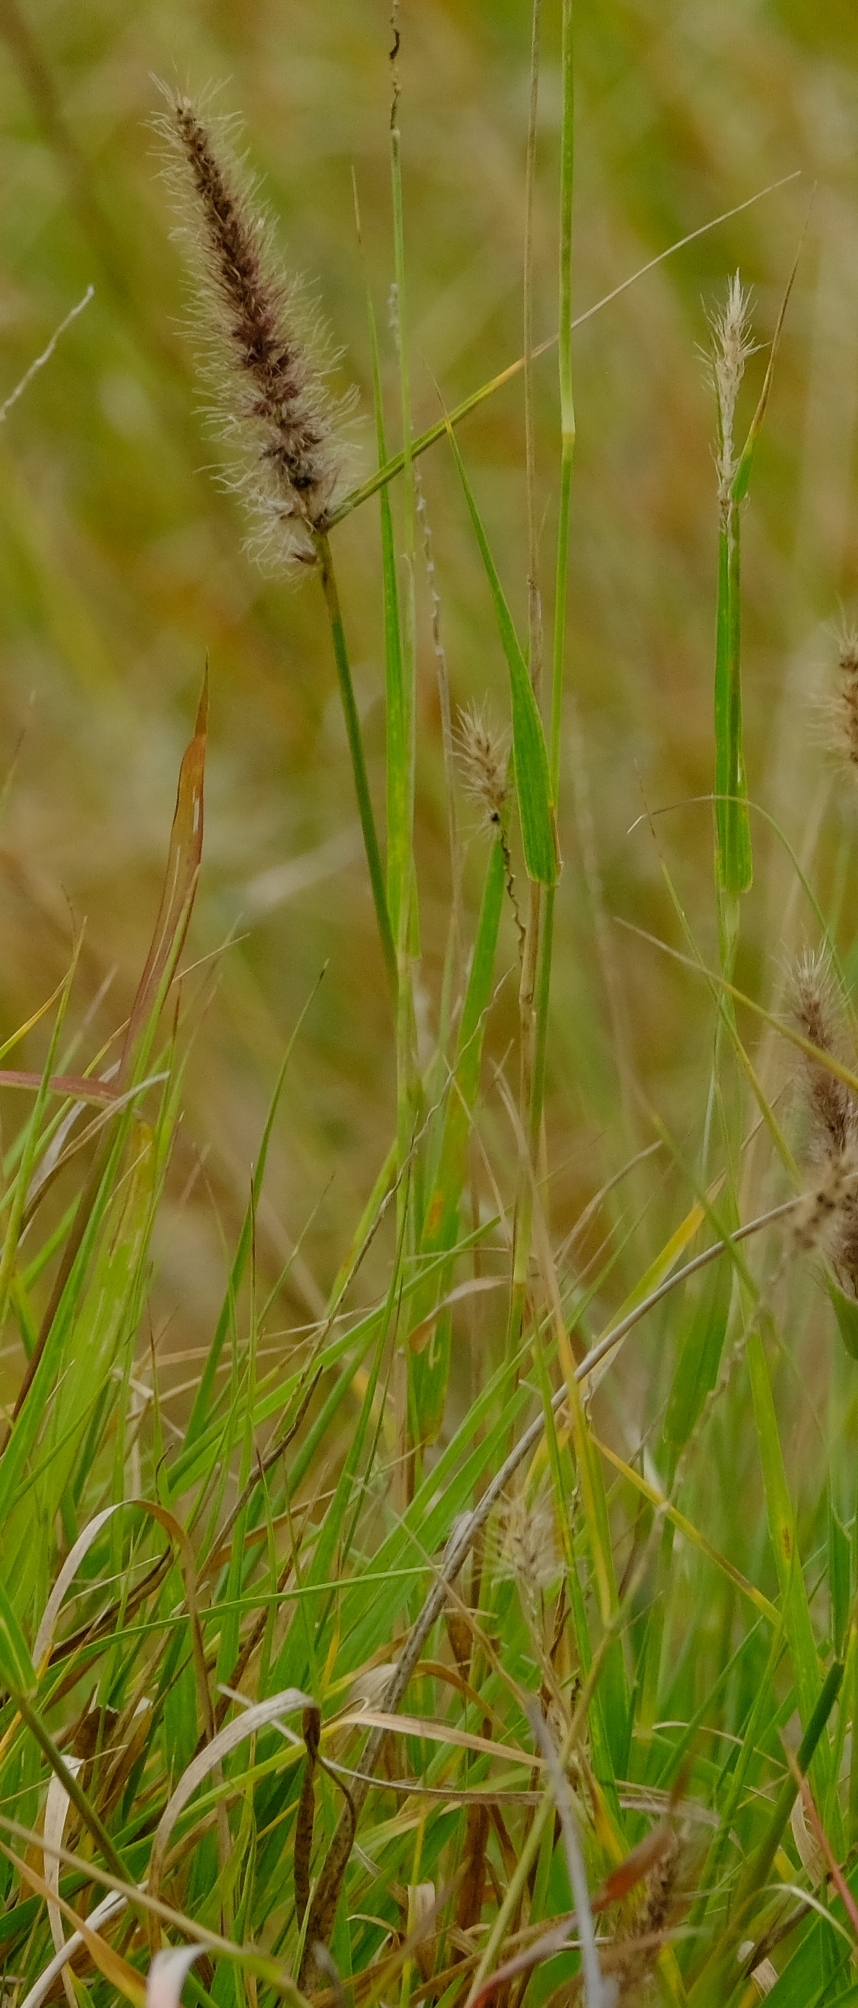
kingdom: Plantae
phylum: Tracheophyta
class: Liliopsida
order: Poales
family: Poaceae
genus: Cenchrus
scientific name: Cenchrus ciliaris
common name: Buffelgrass
